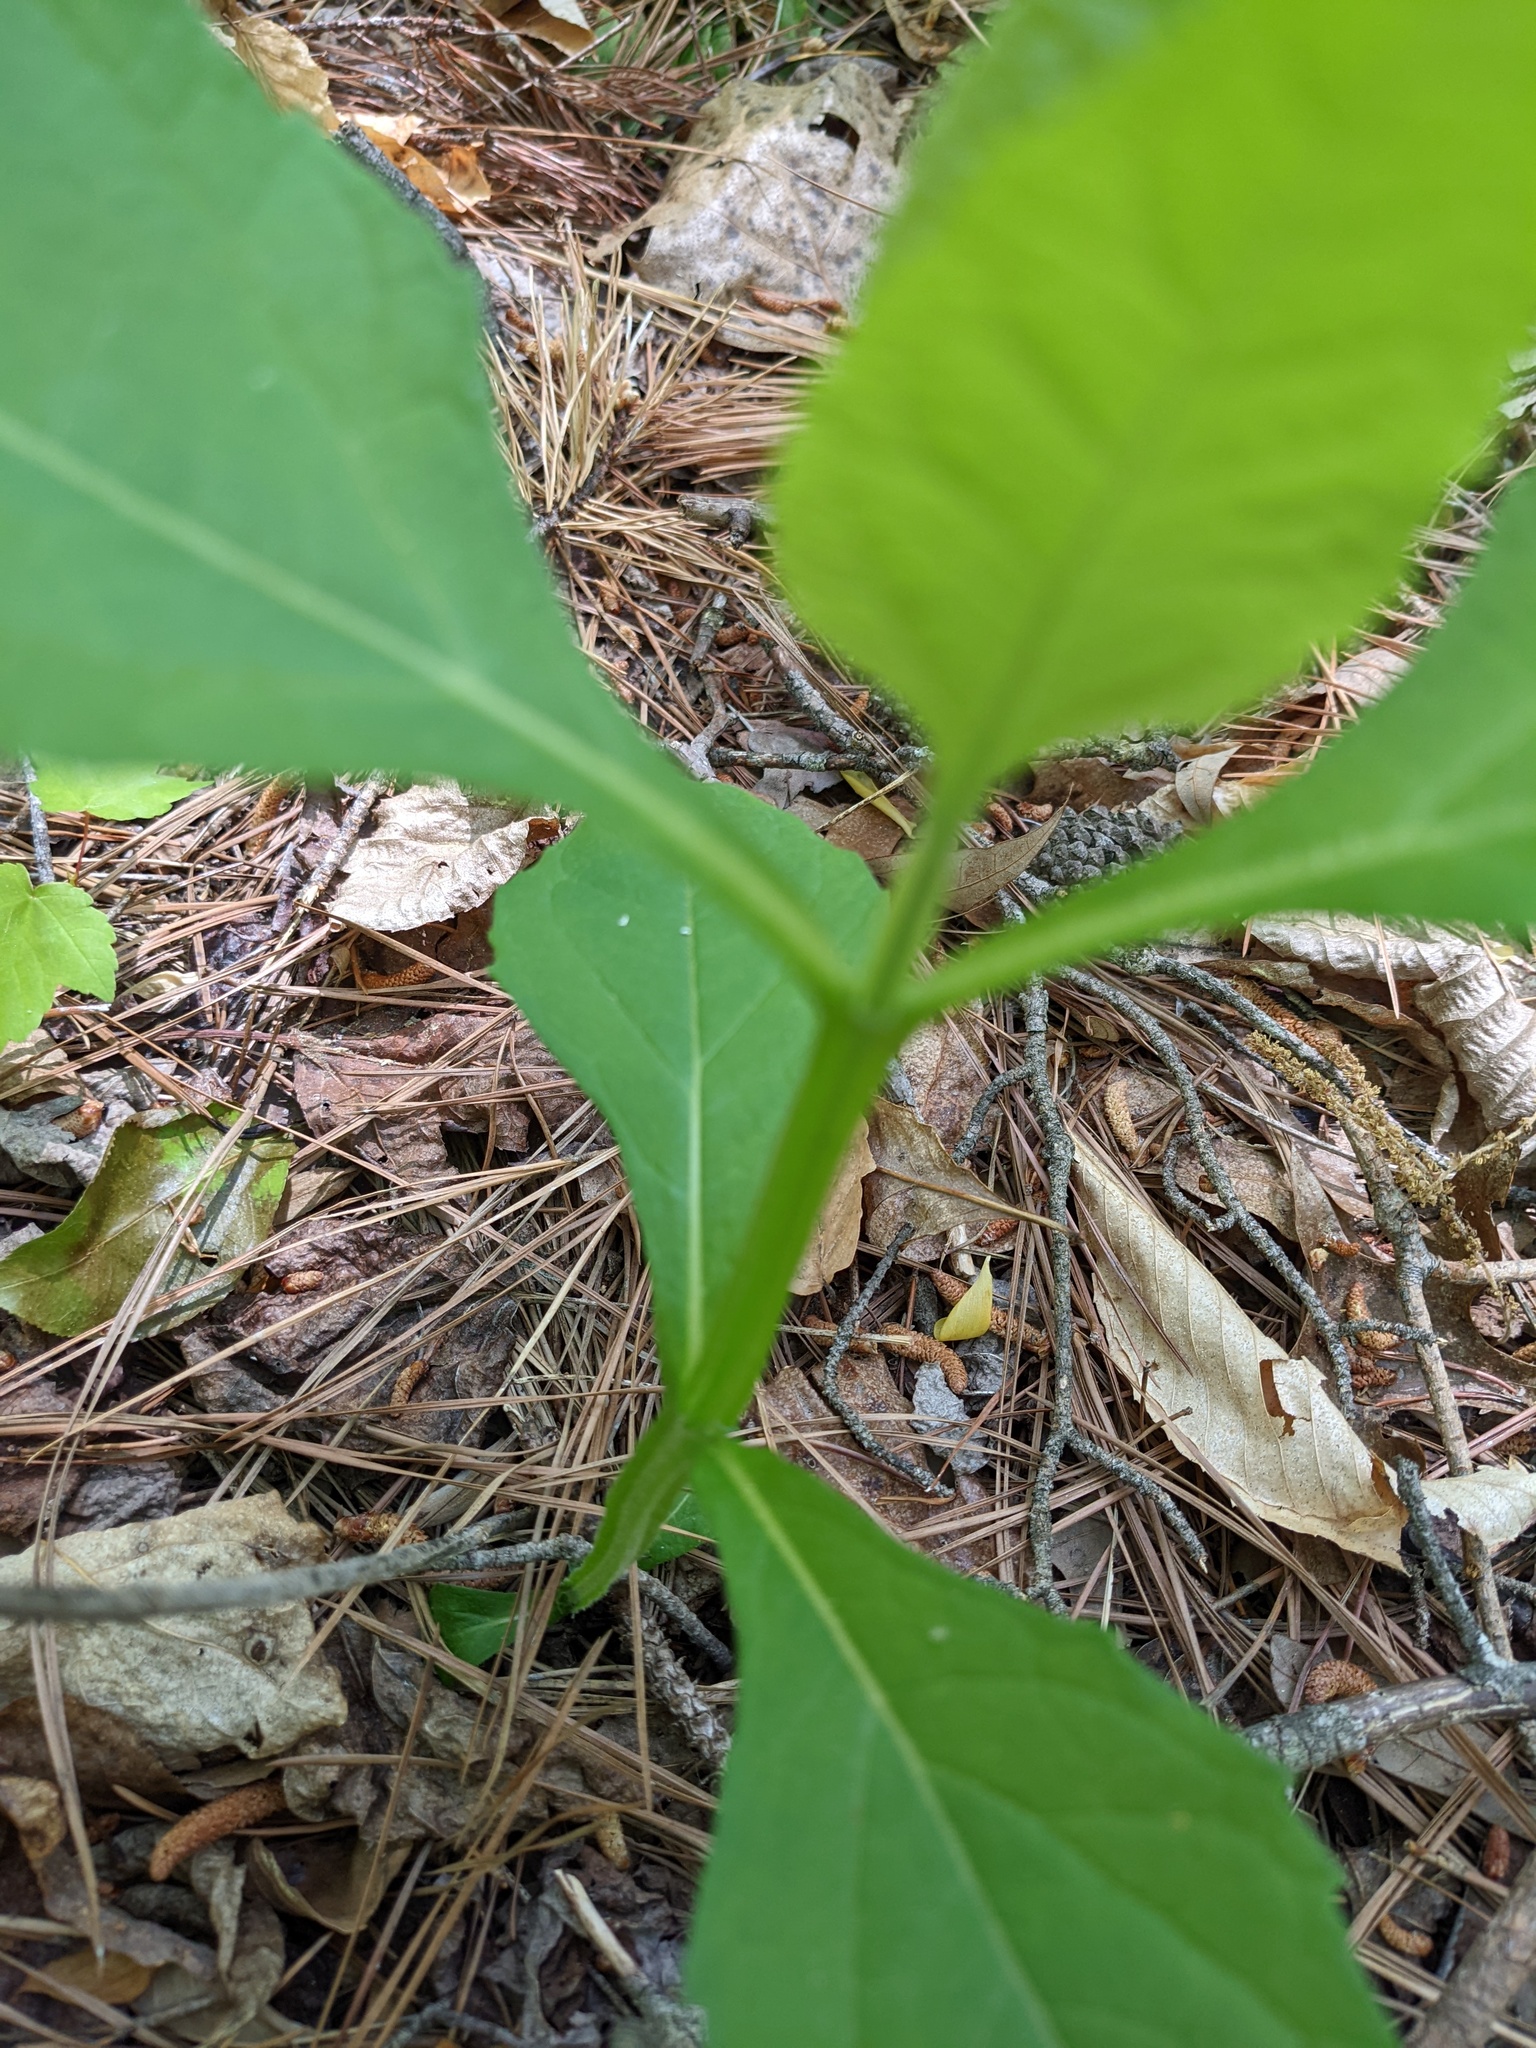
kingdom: Plantae
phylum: Tracheophyta
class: Magnoliopsida
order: Asterales
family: Asteraceae
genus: Verbesina
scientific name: Verbesina occidentalis
